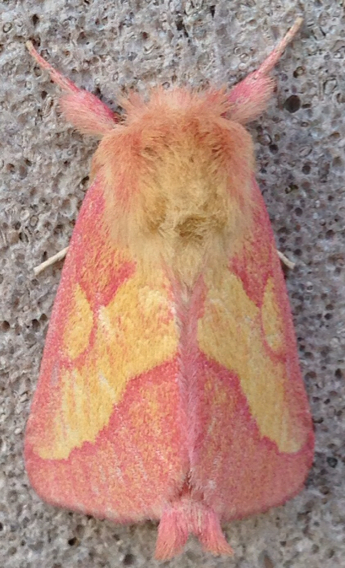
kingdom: Animalia
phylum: Arthropoda
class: Insecta
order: Lepidoptera
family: Notodontidae
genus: Hyparpax
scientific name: Hyparpax aurora
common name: Pink prominent
